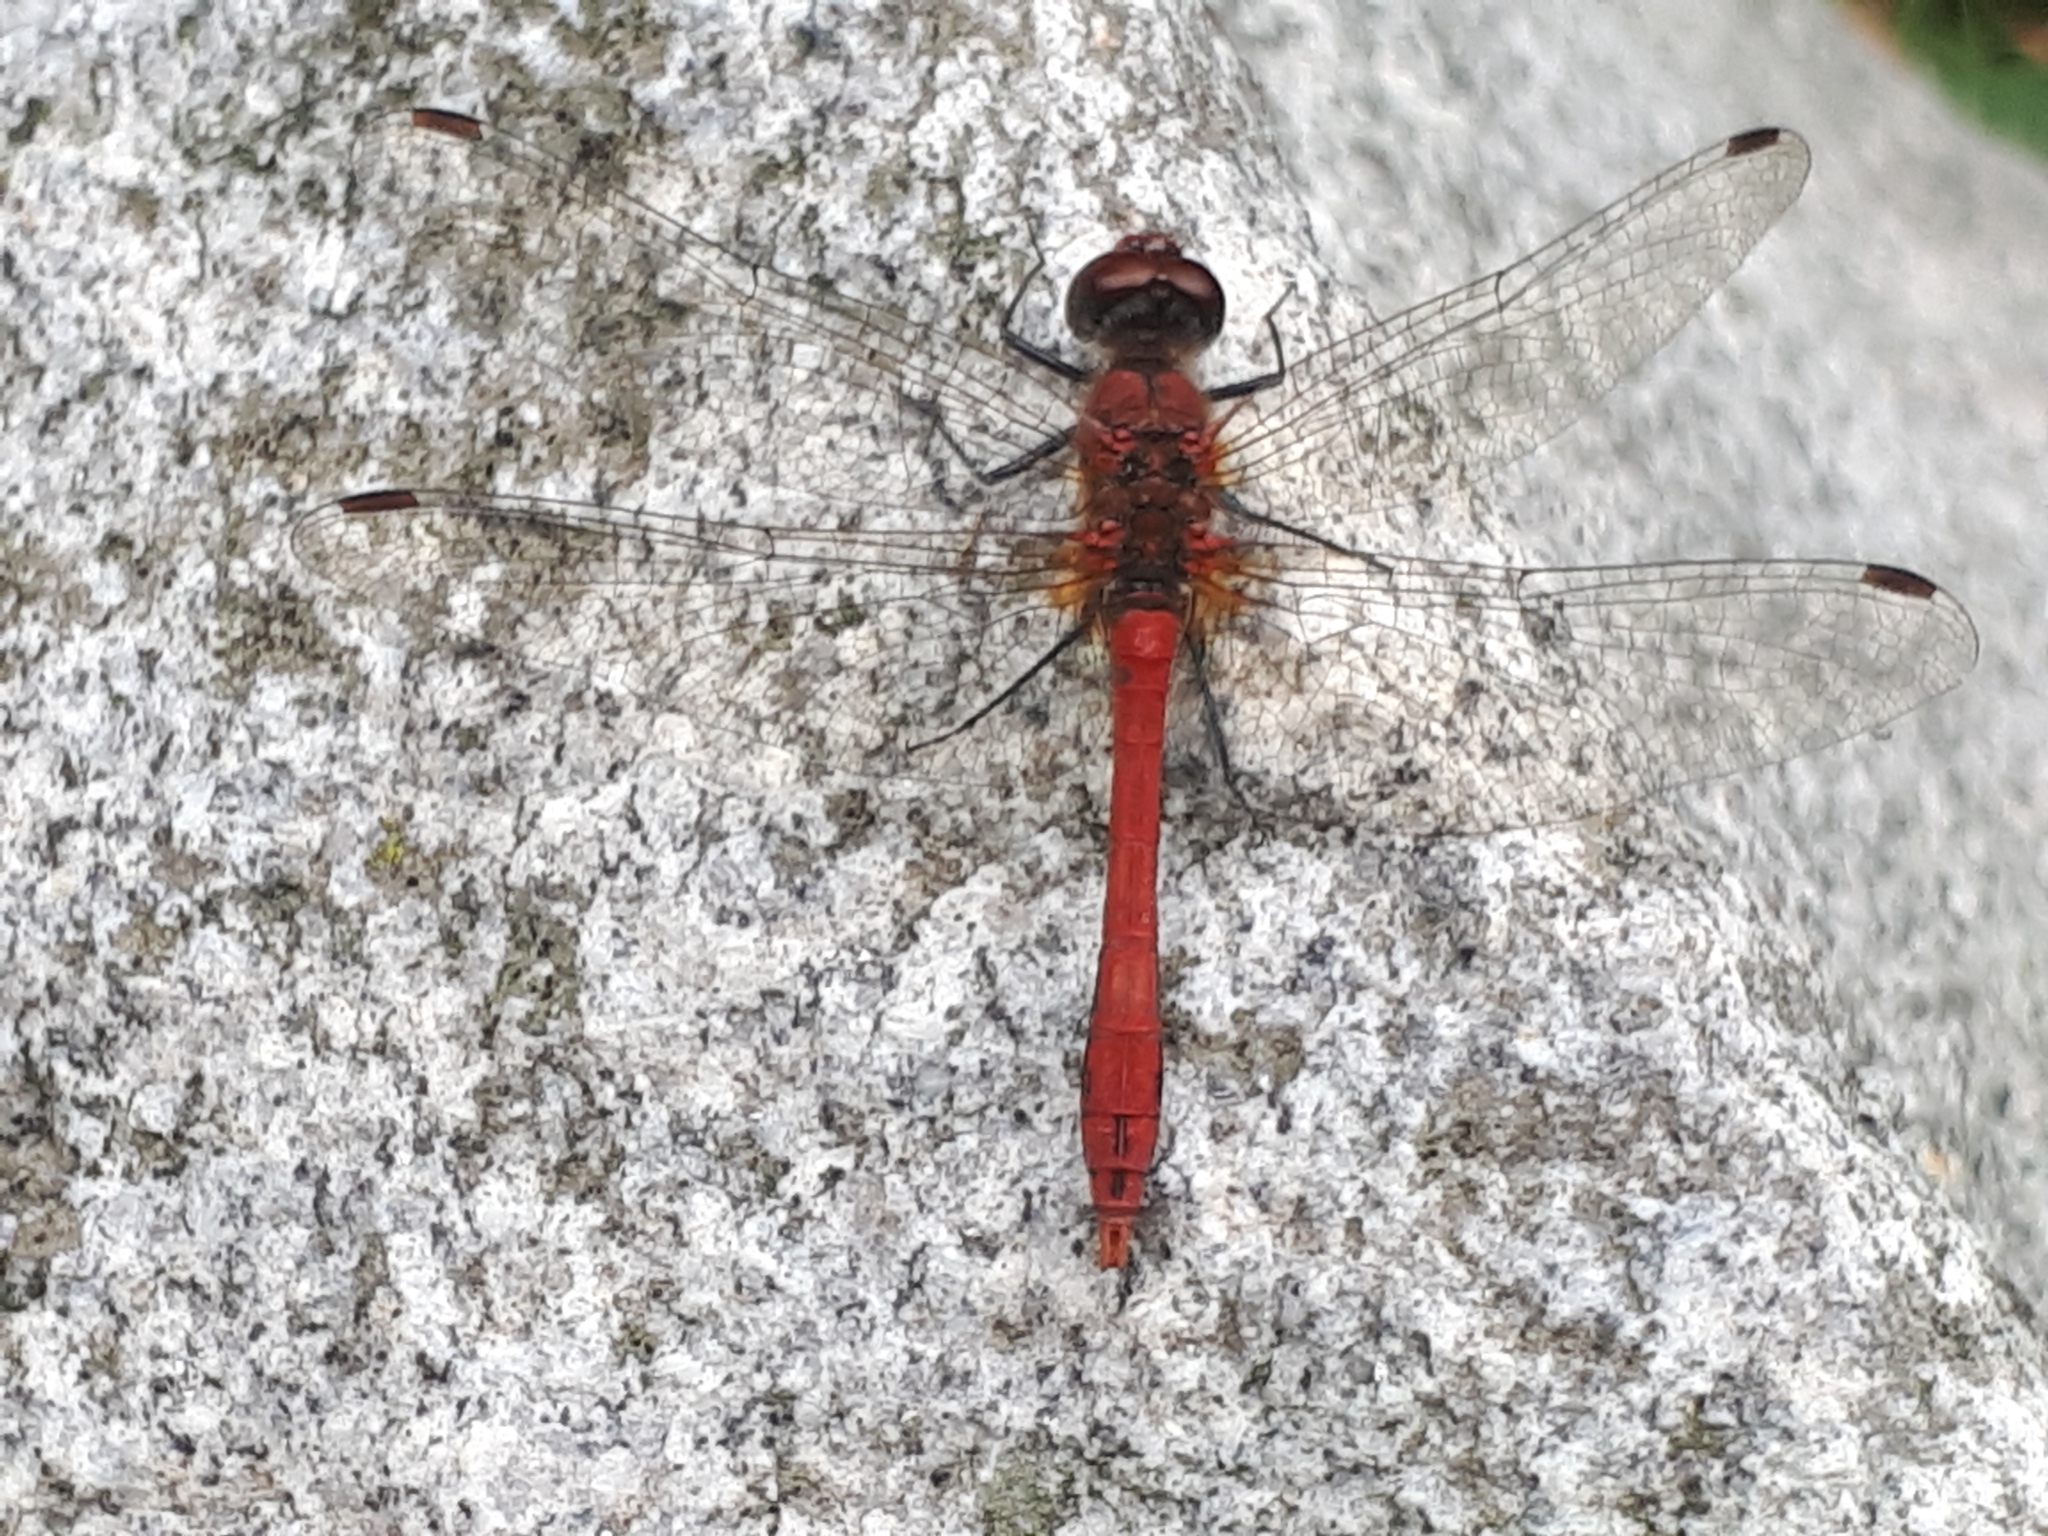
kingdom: Animalia
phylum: Arthropoda
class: Insecta
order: Odonata
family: Libellulidae
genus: Sympetrum
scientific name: Sympetrum sanguineum
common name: Ruddy darter
